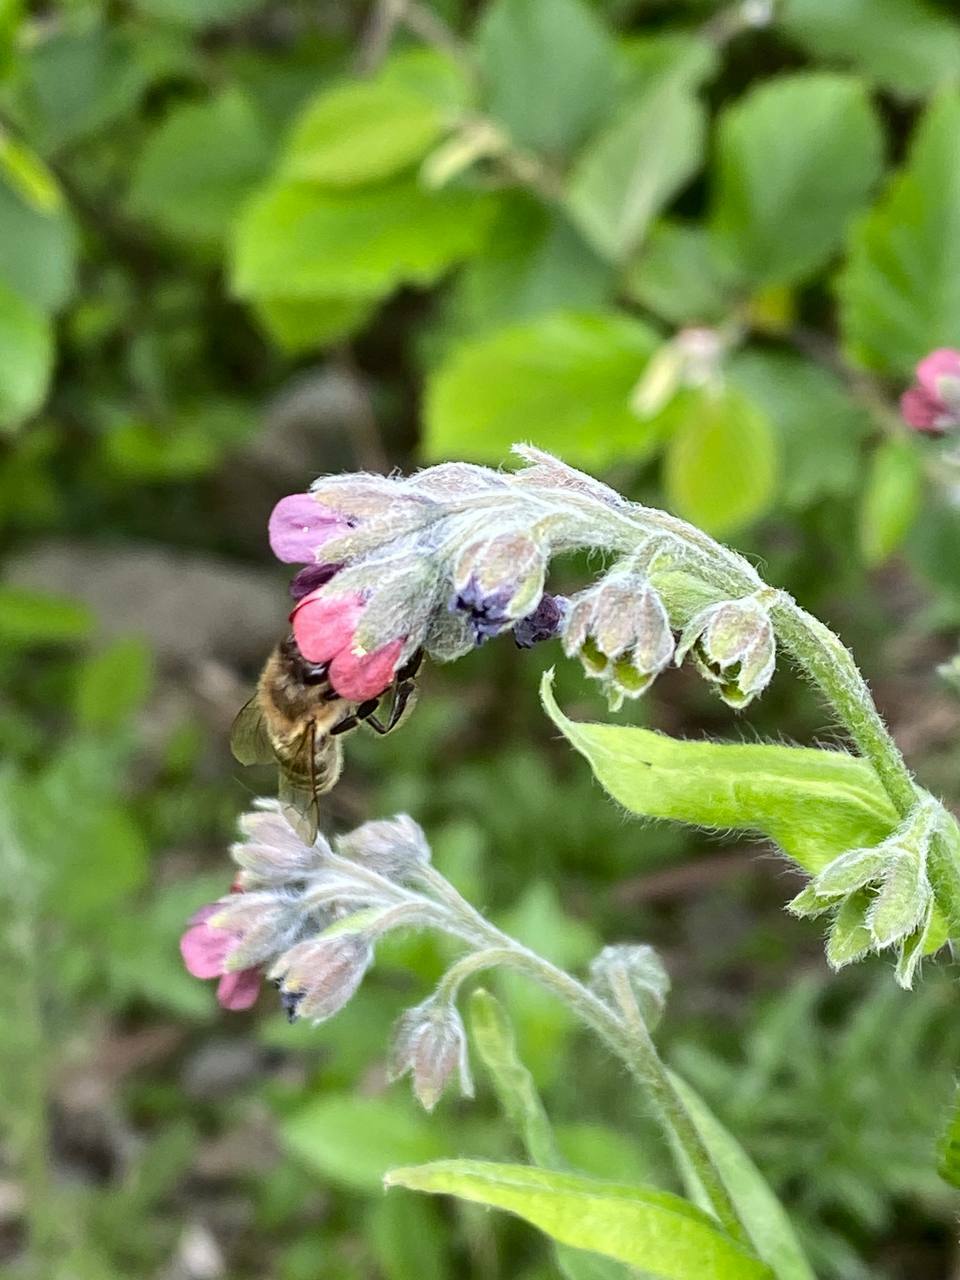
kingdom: Animalia
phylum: Arthropoda
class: Insecta
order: Hymenoptera
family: Apidae
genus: Apis
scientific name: Apis mellifera
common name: Honey bee
